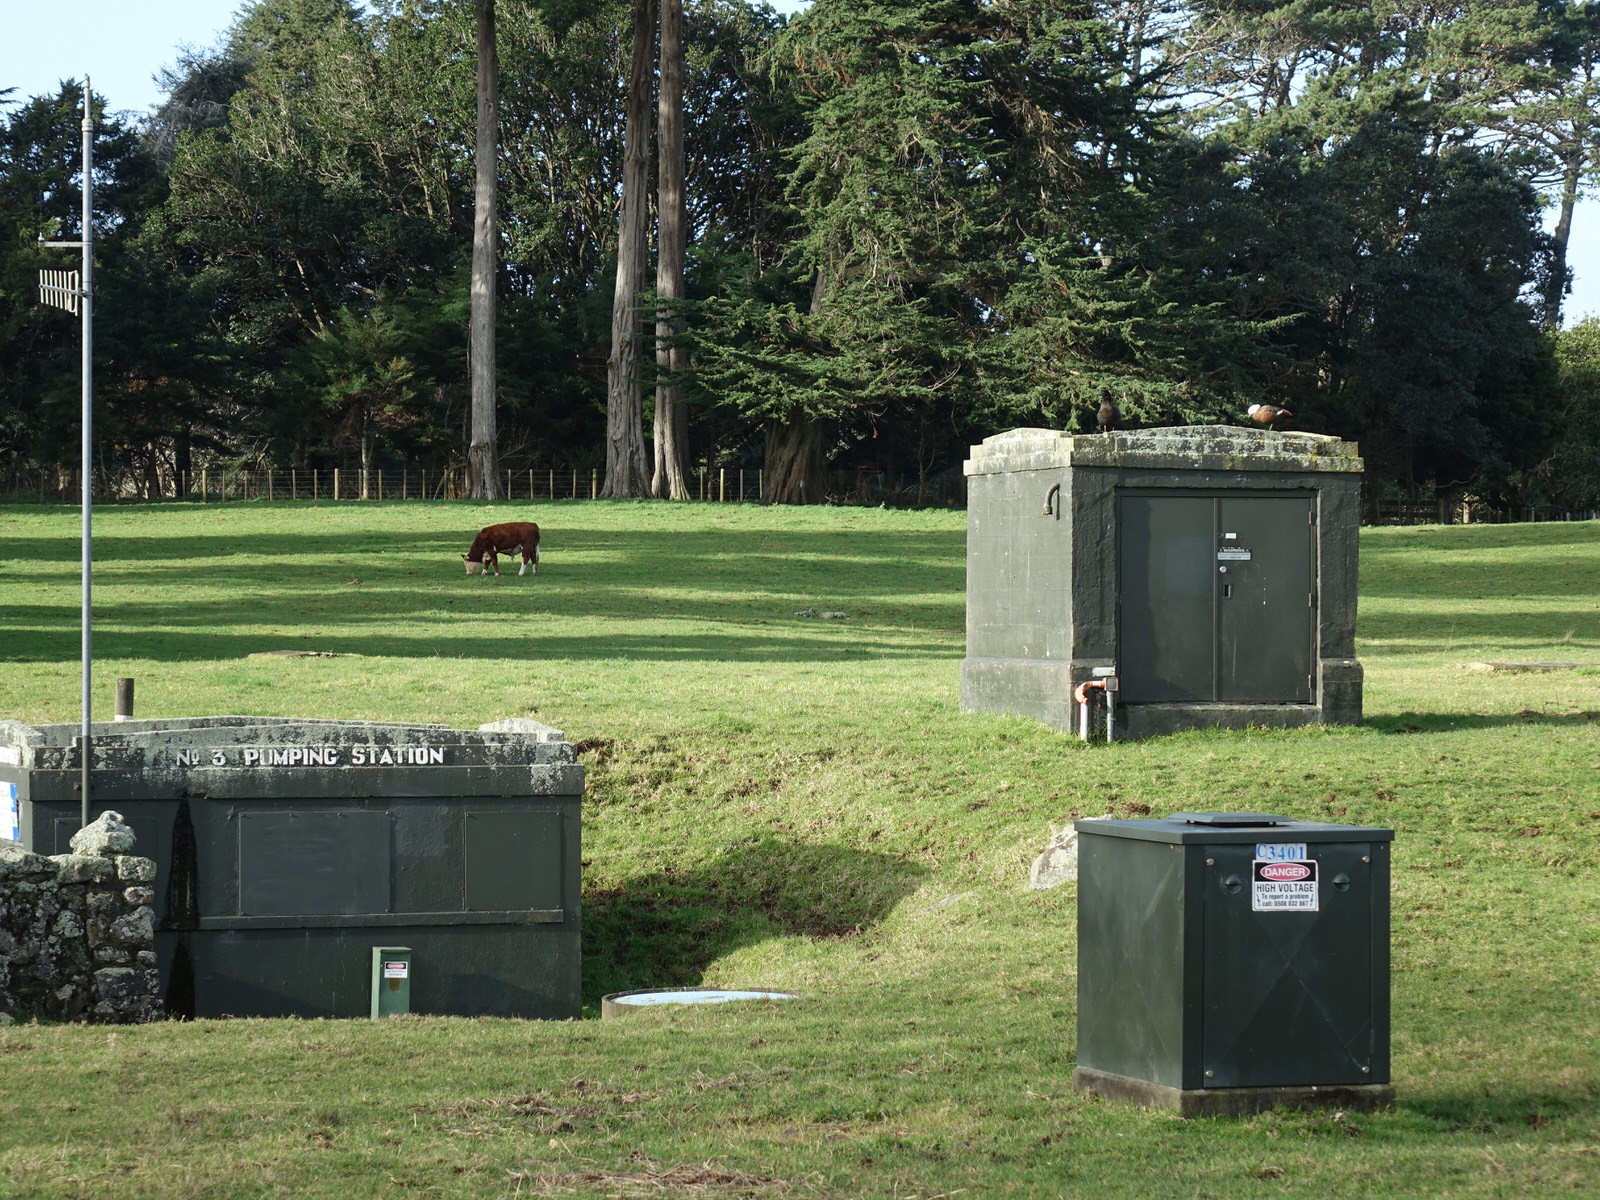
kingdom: Animalia
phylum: Chordata
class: Aves
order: Anseriformes
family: Anatidae
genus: Tadorna
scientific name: Tadorna variegata
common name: Paradise shelduck
